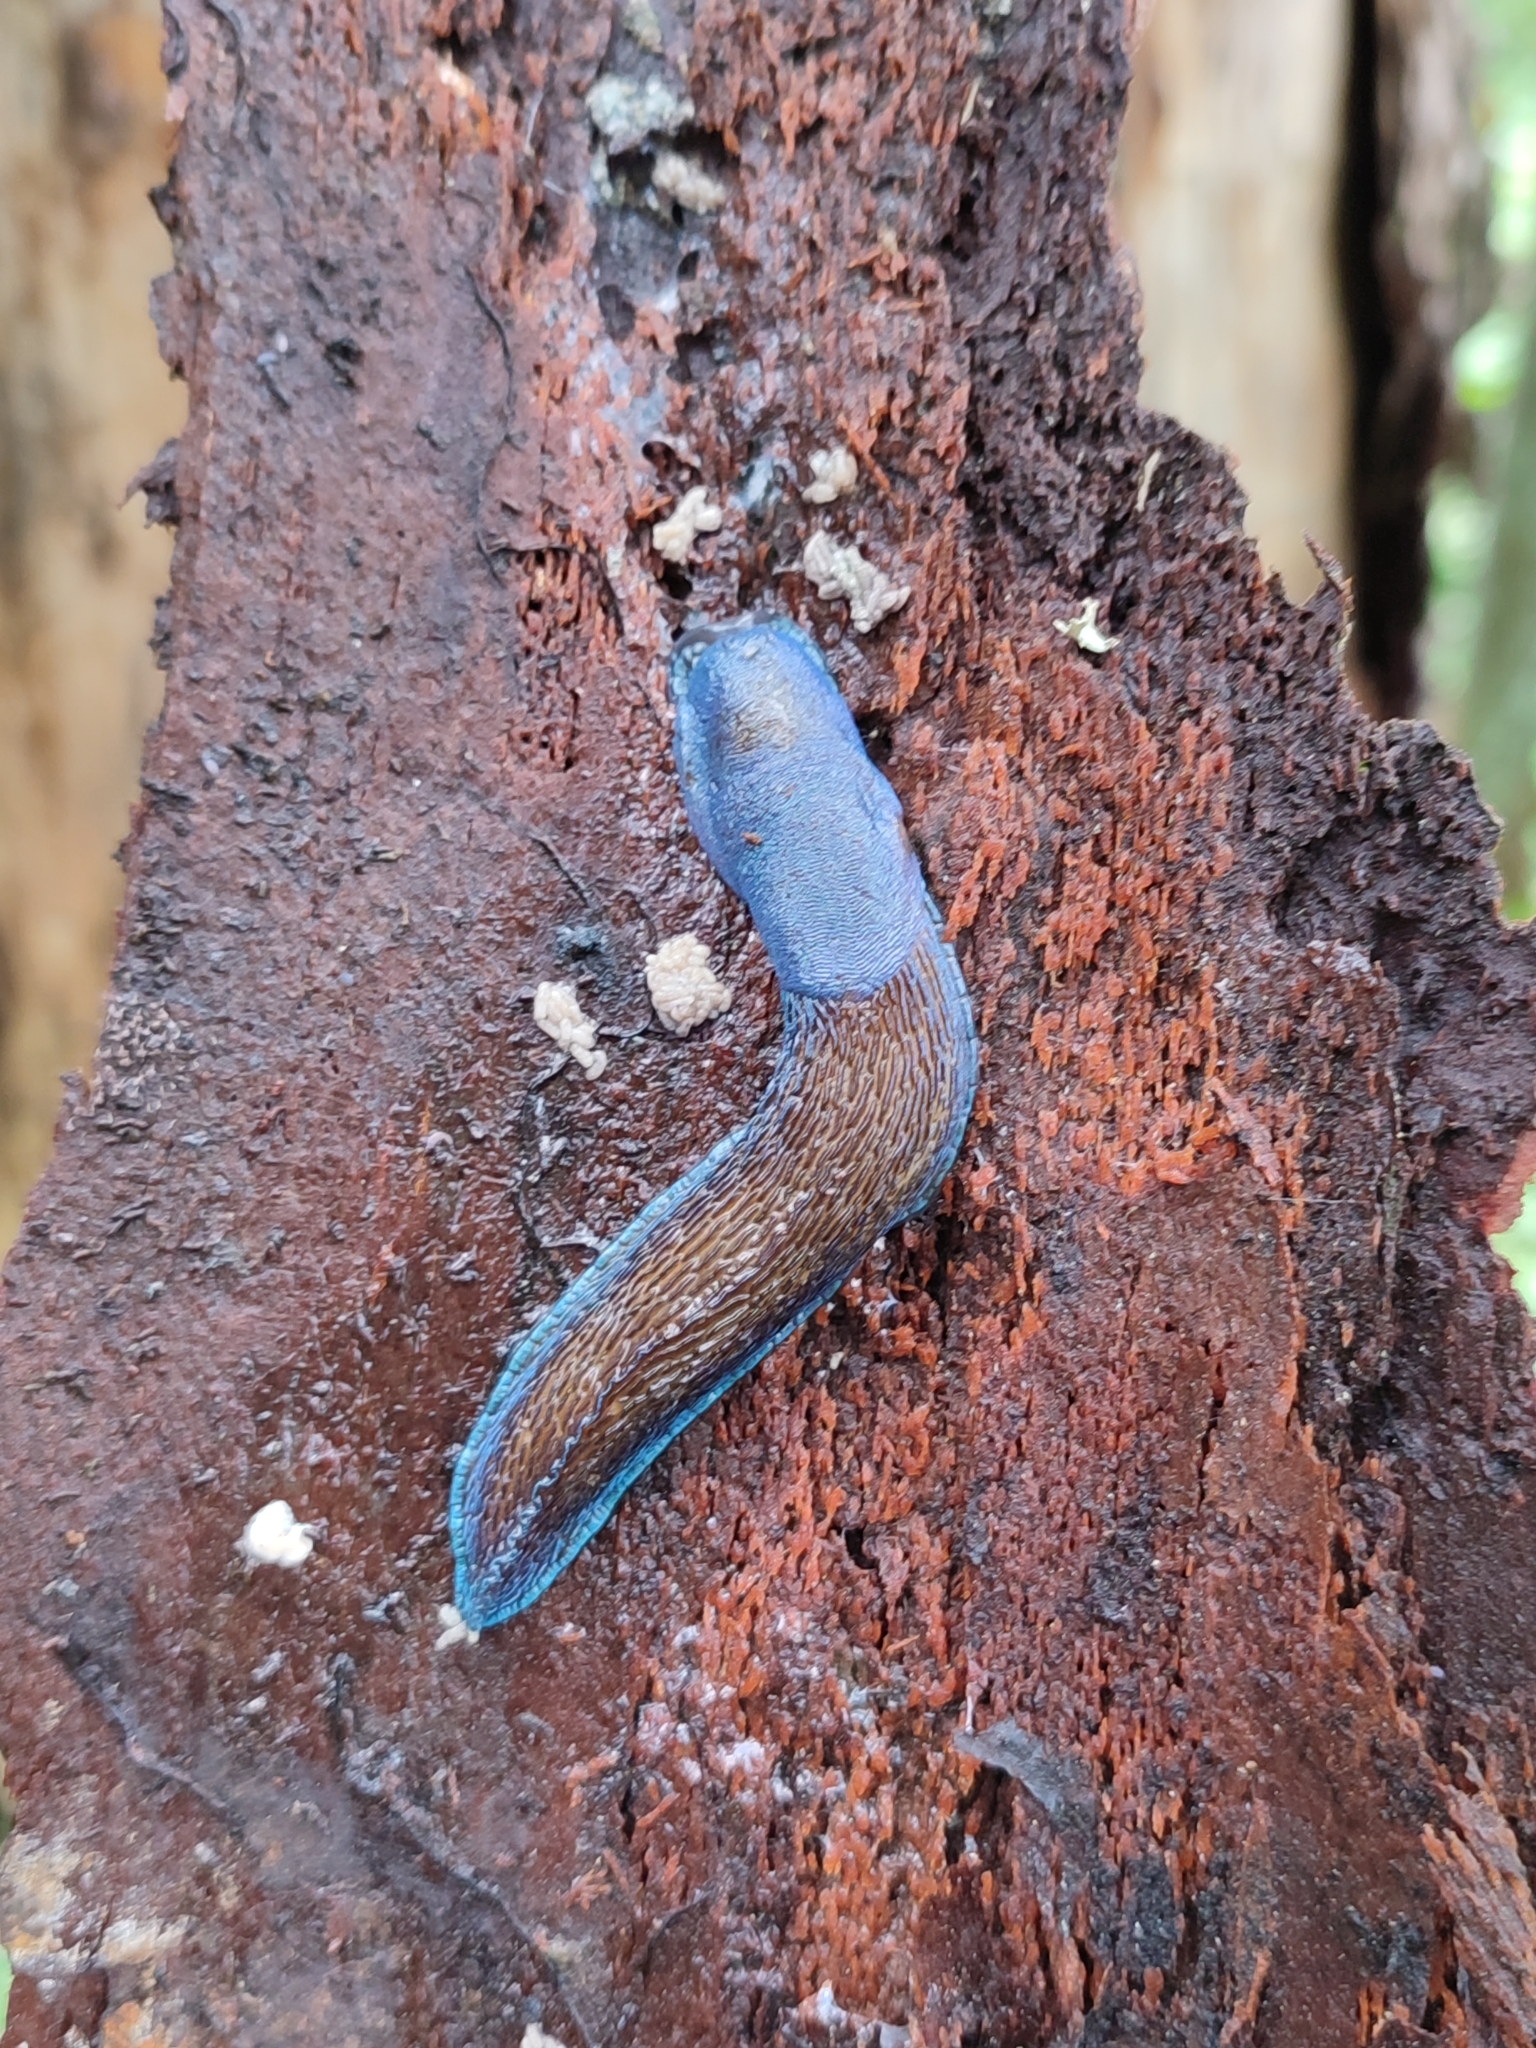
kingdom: Animalia
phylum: Mollusca
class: Gastropoda
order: Stylommatophora
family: Limacidae
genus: Bielzia
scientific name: Bielzia coerulans
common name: Carpathian blue slug
